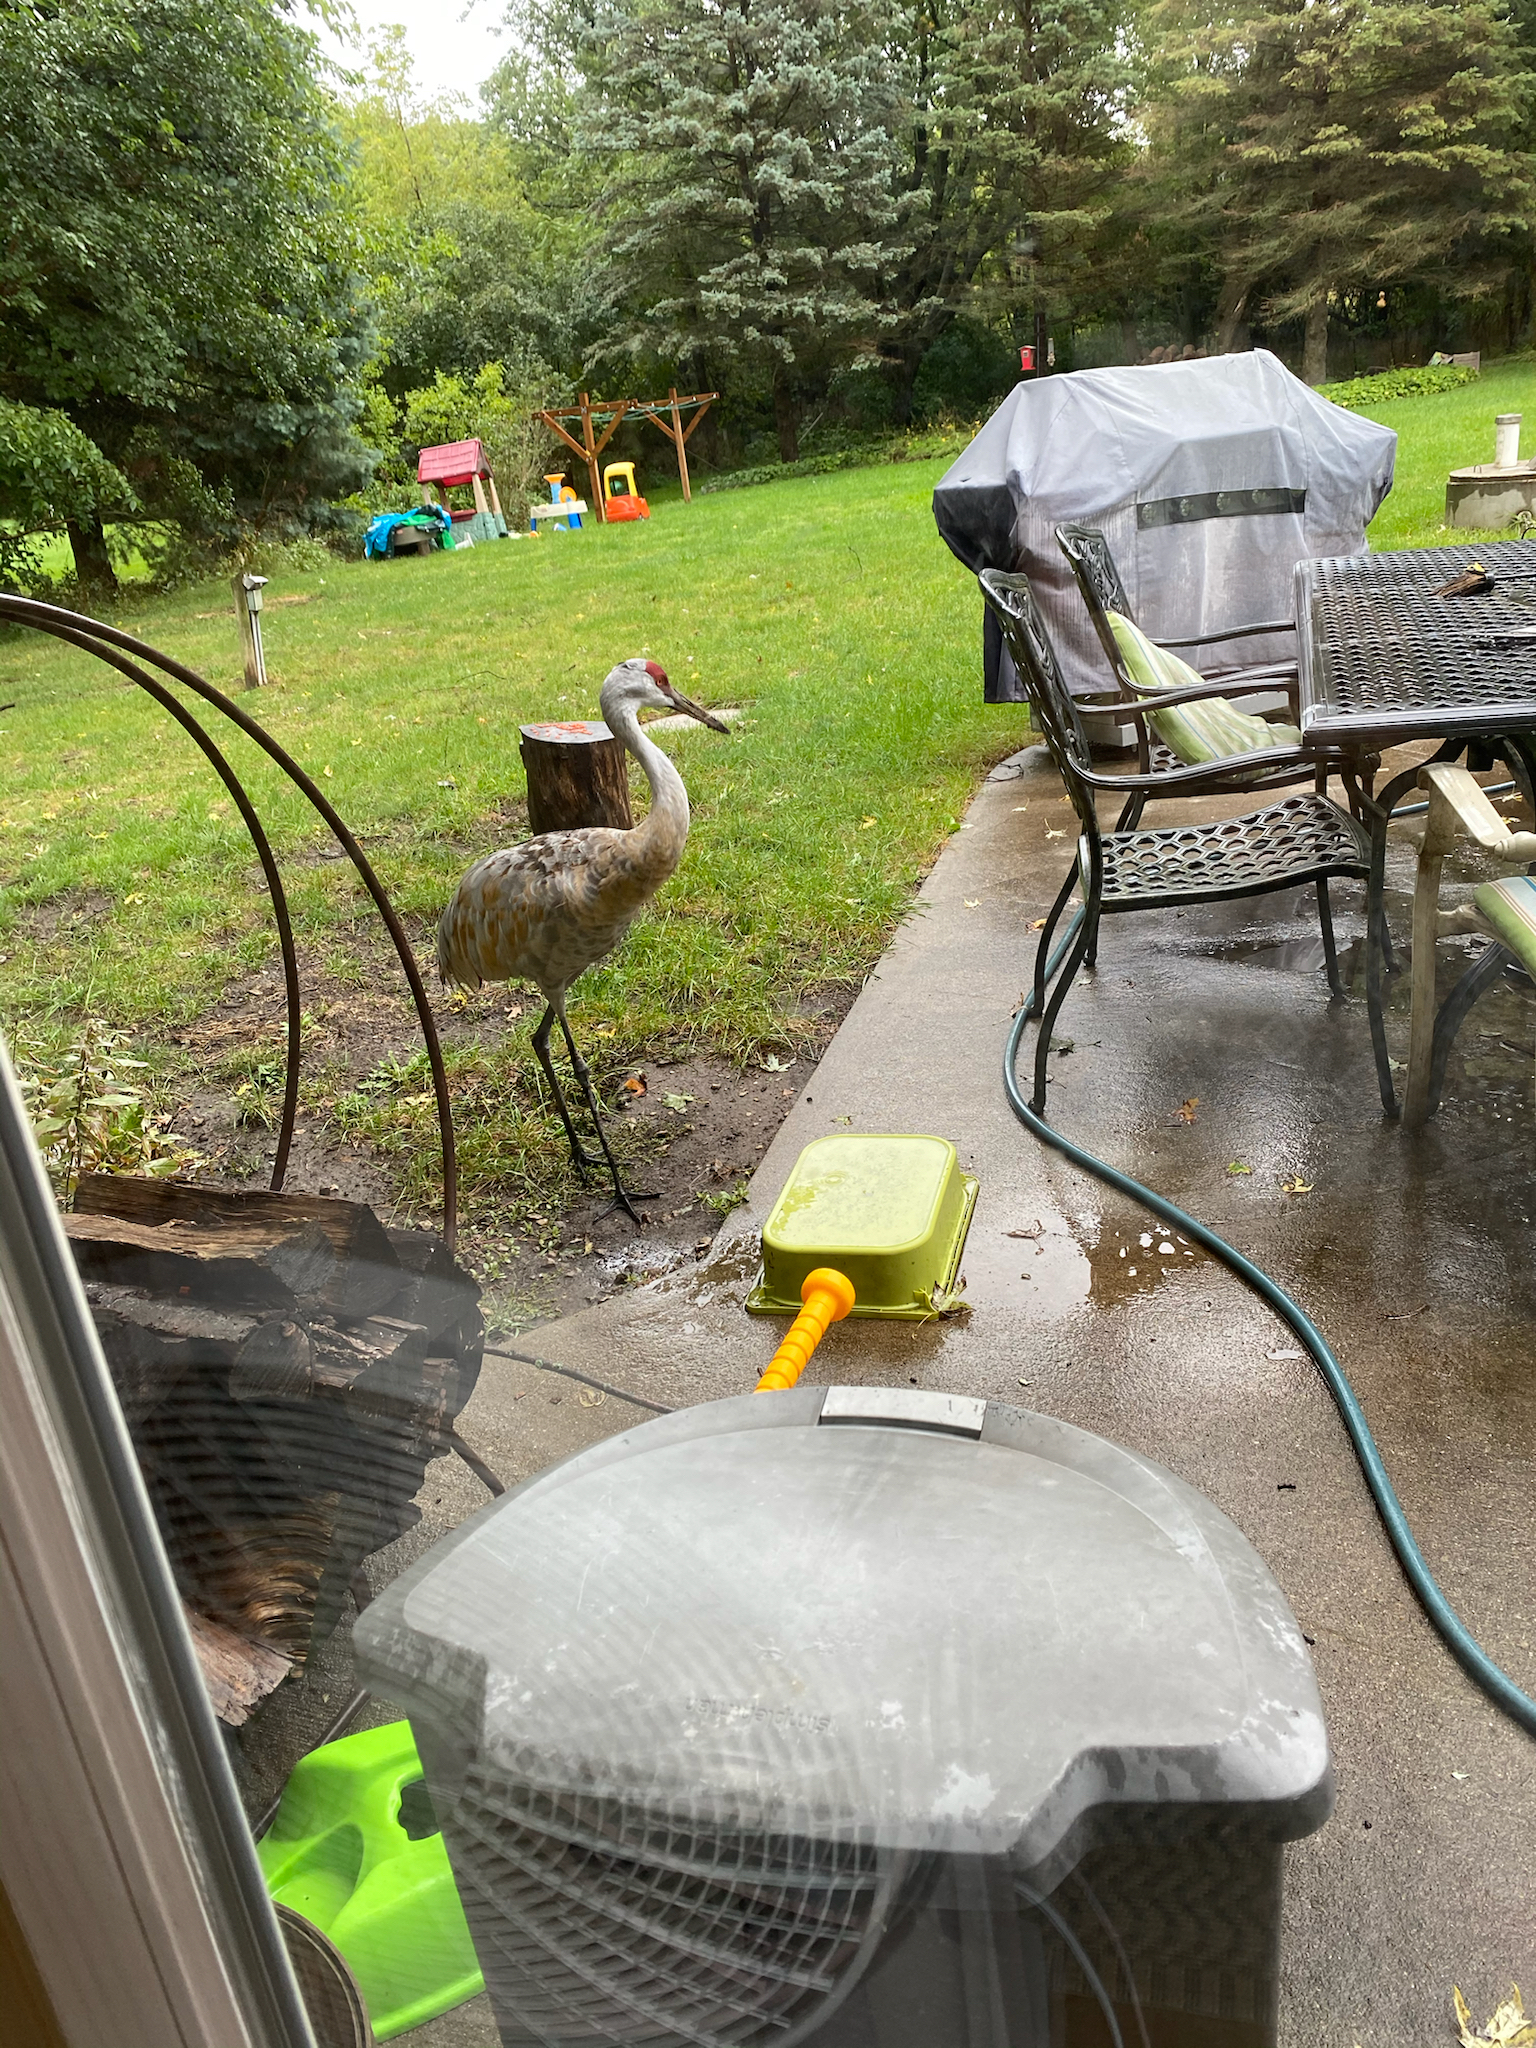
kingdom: Animalia
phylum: Chordata
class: Aves
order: Gruiformes
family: Gruidae
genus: Grus
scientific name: Grus canadensis
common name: Sandhill crane
